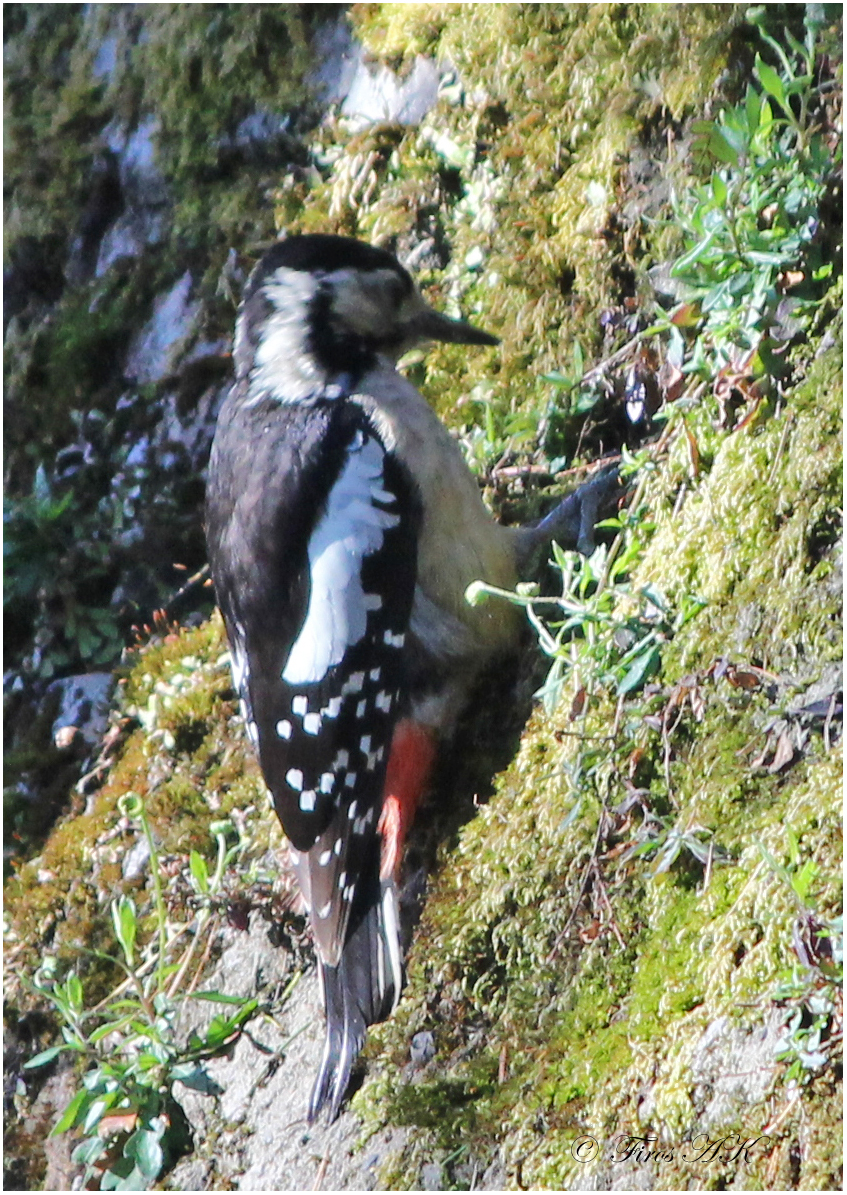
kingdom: Animalia
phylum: Chordata
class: Aves
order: Piciformes
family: Picidae
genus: Dendrocopos
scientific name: Dendrocopos himalayensis
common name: Himalayan woodpecker
